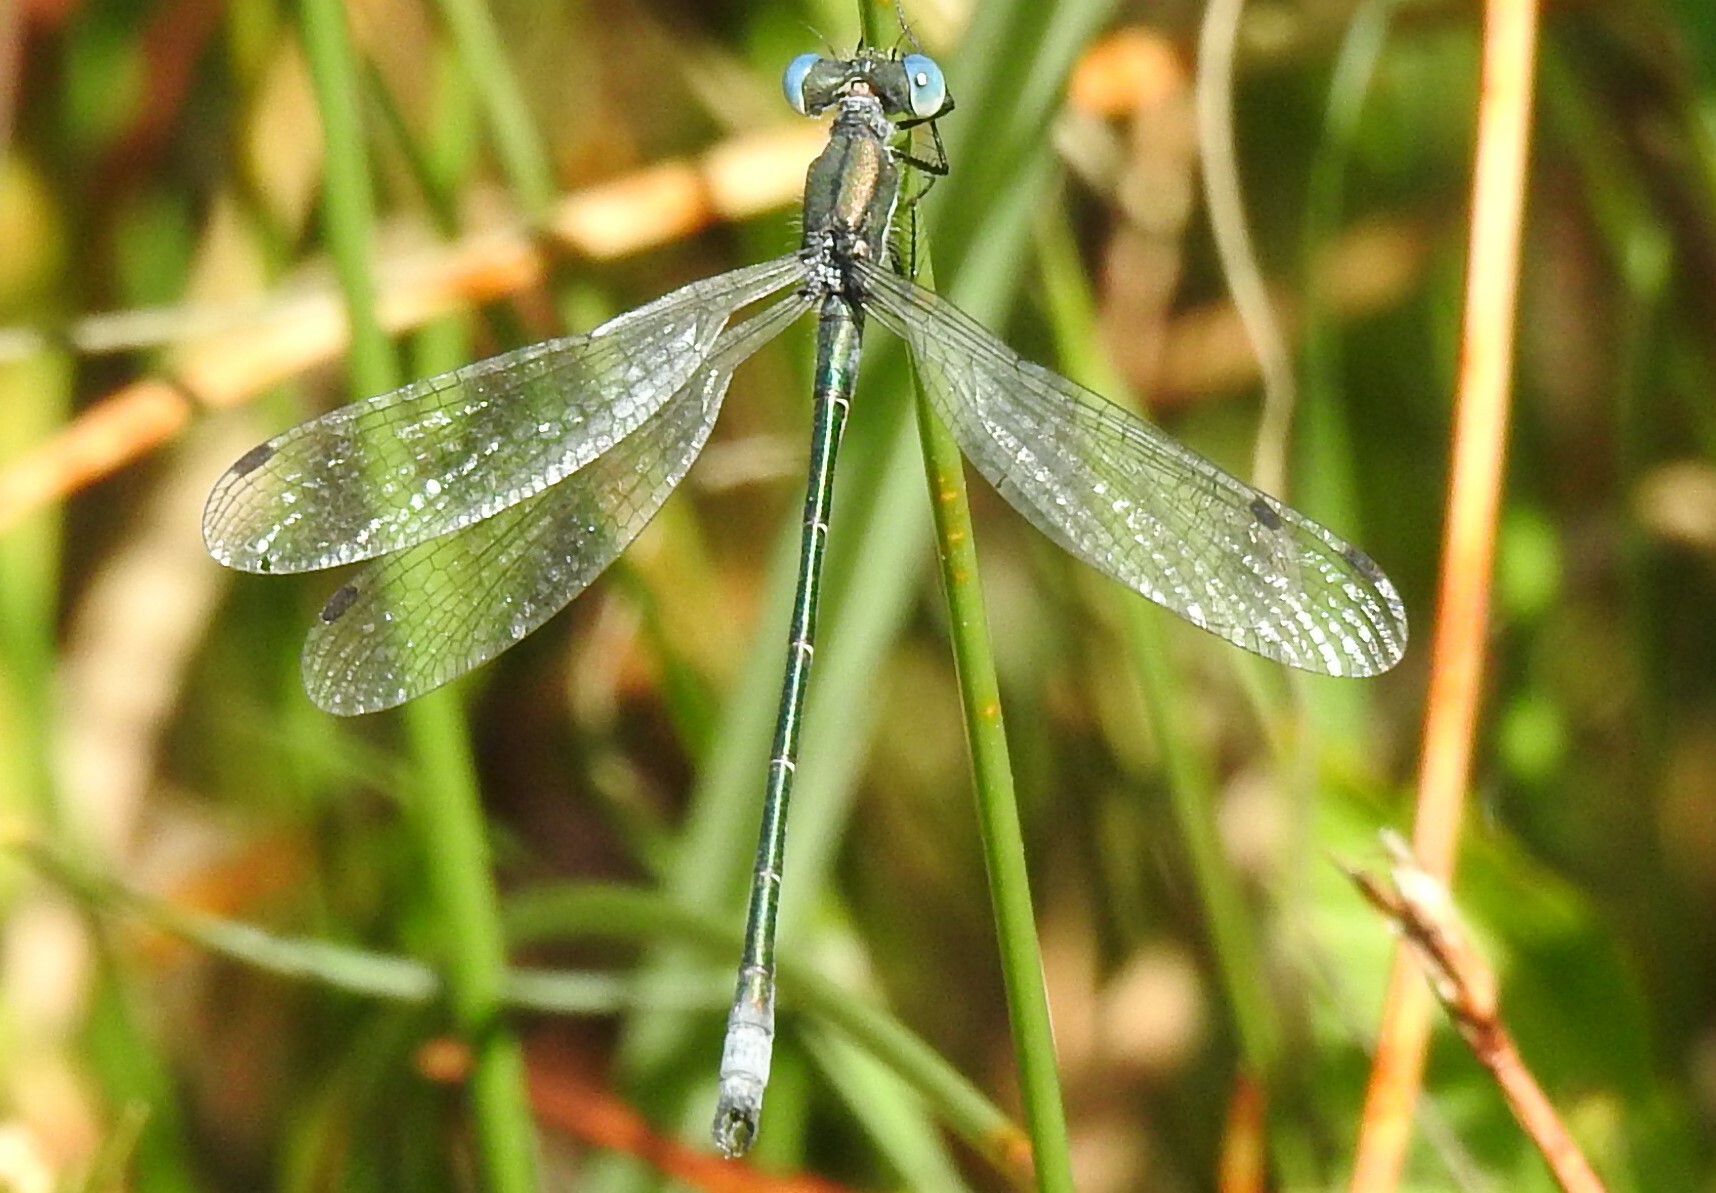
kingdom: Animalia
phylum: Arthropoda
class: Insecta
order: Odonata
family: Lestidae
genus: Lestes
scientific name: Lestes dryas
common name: Scarce emerald damselfly
